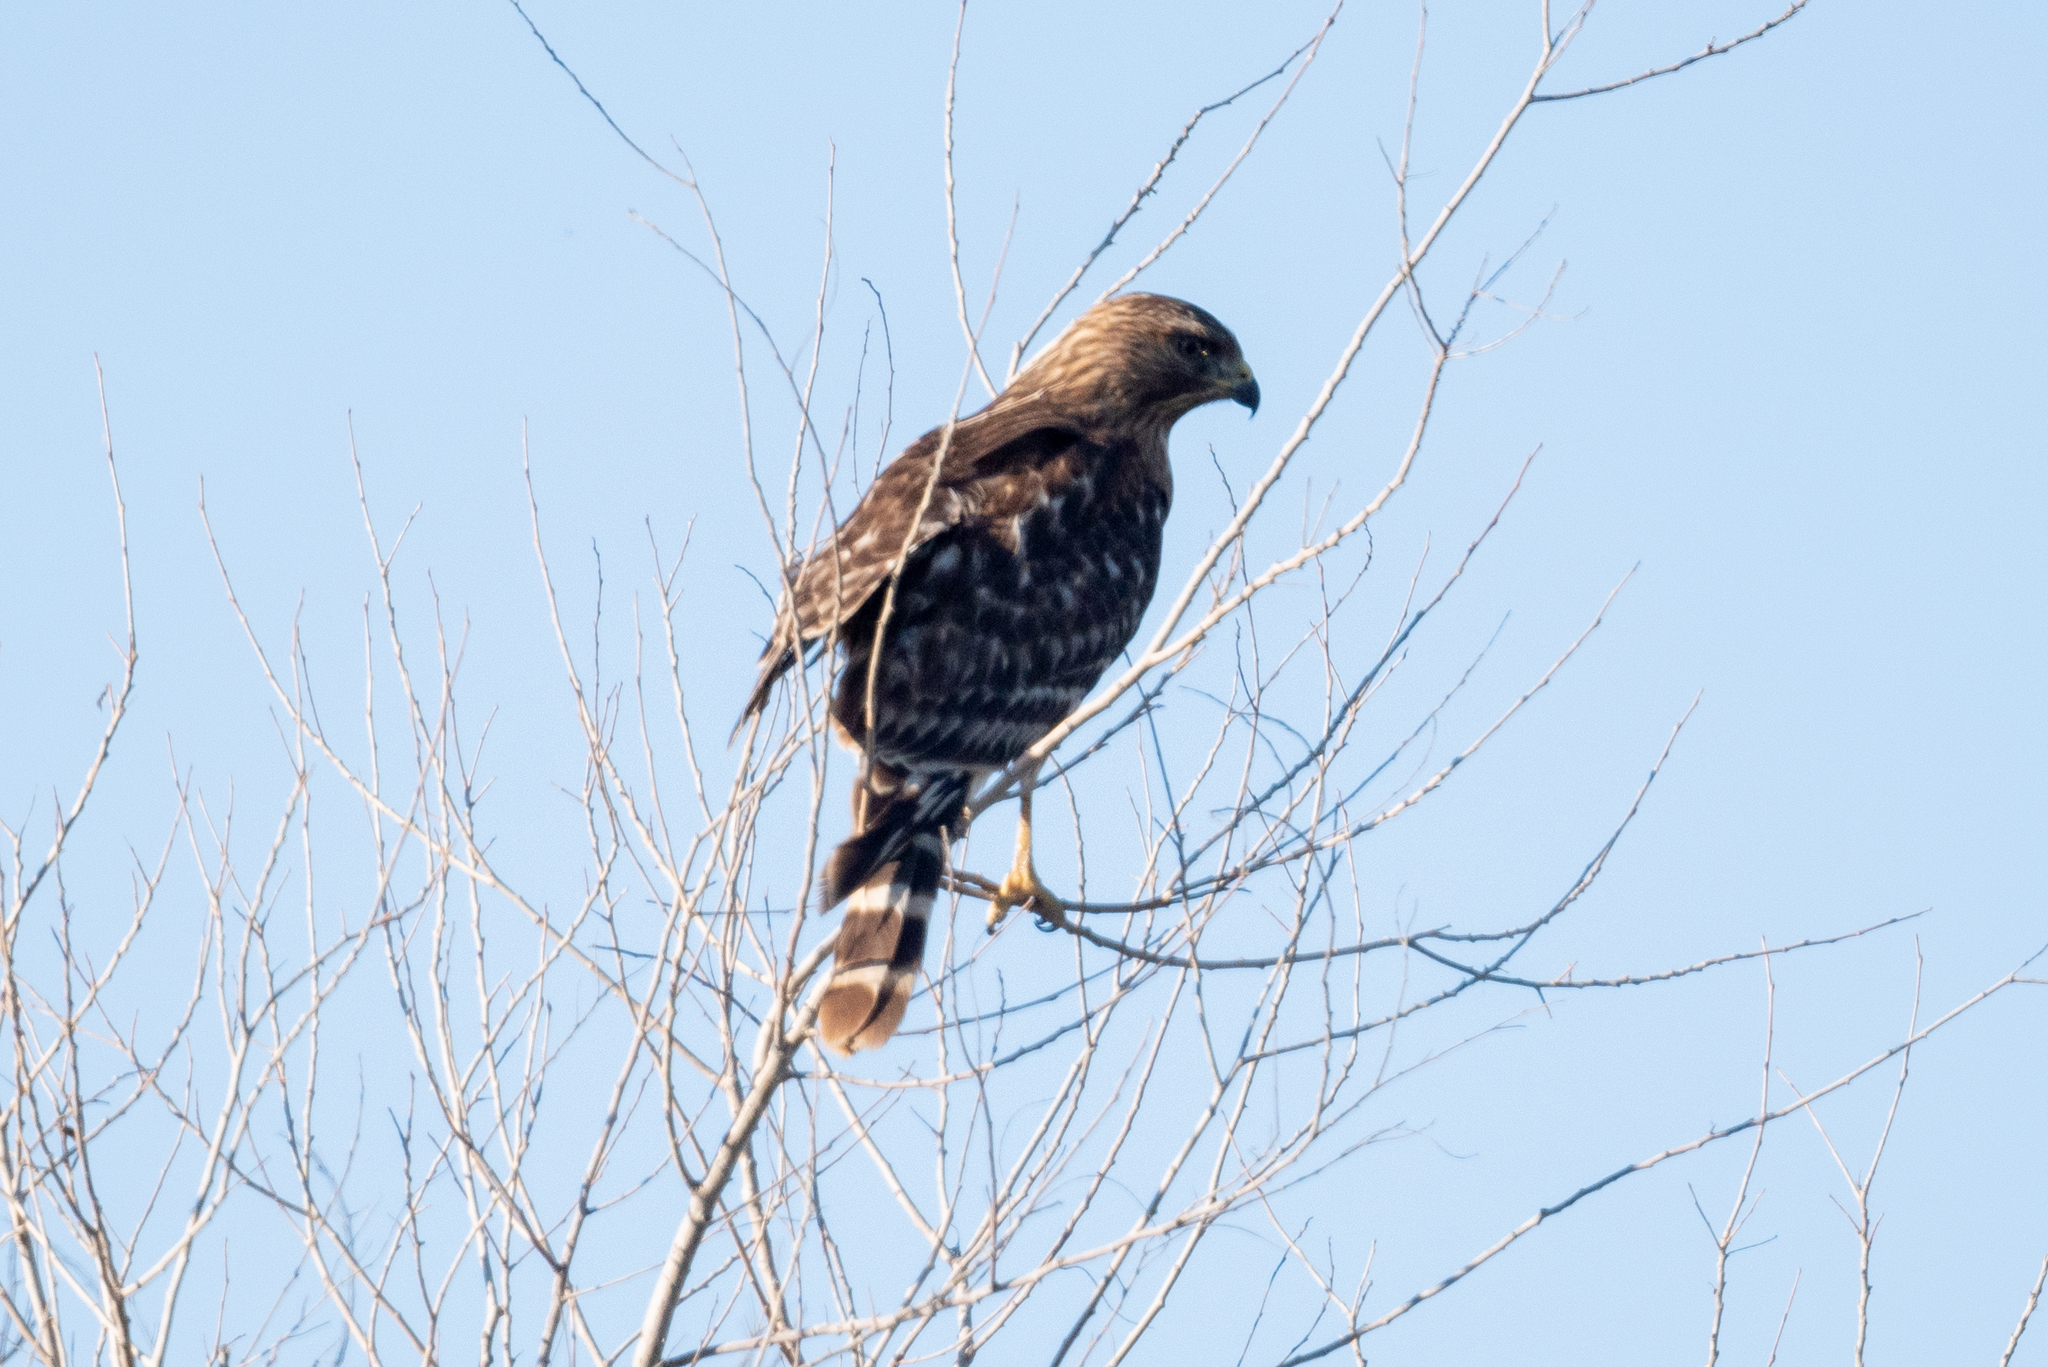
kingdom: Animalia
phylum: Chordata
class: Aves
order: Accipitriformes
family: Accipitridae
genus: Buteo
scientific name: Buteo lineatus
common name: Red-shouldered hawk
